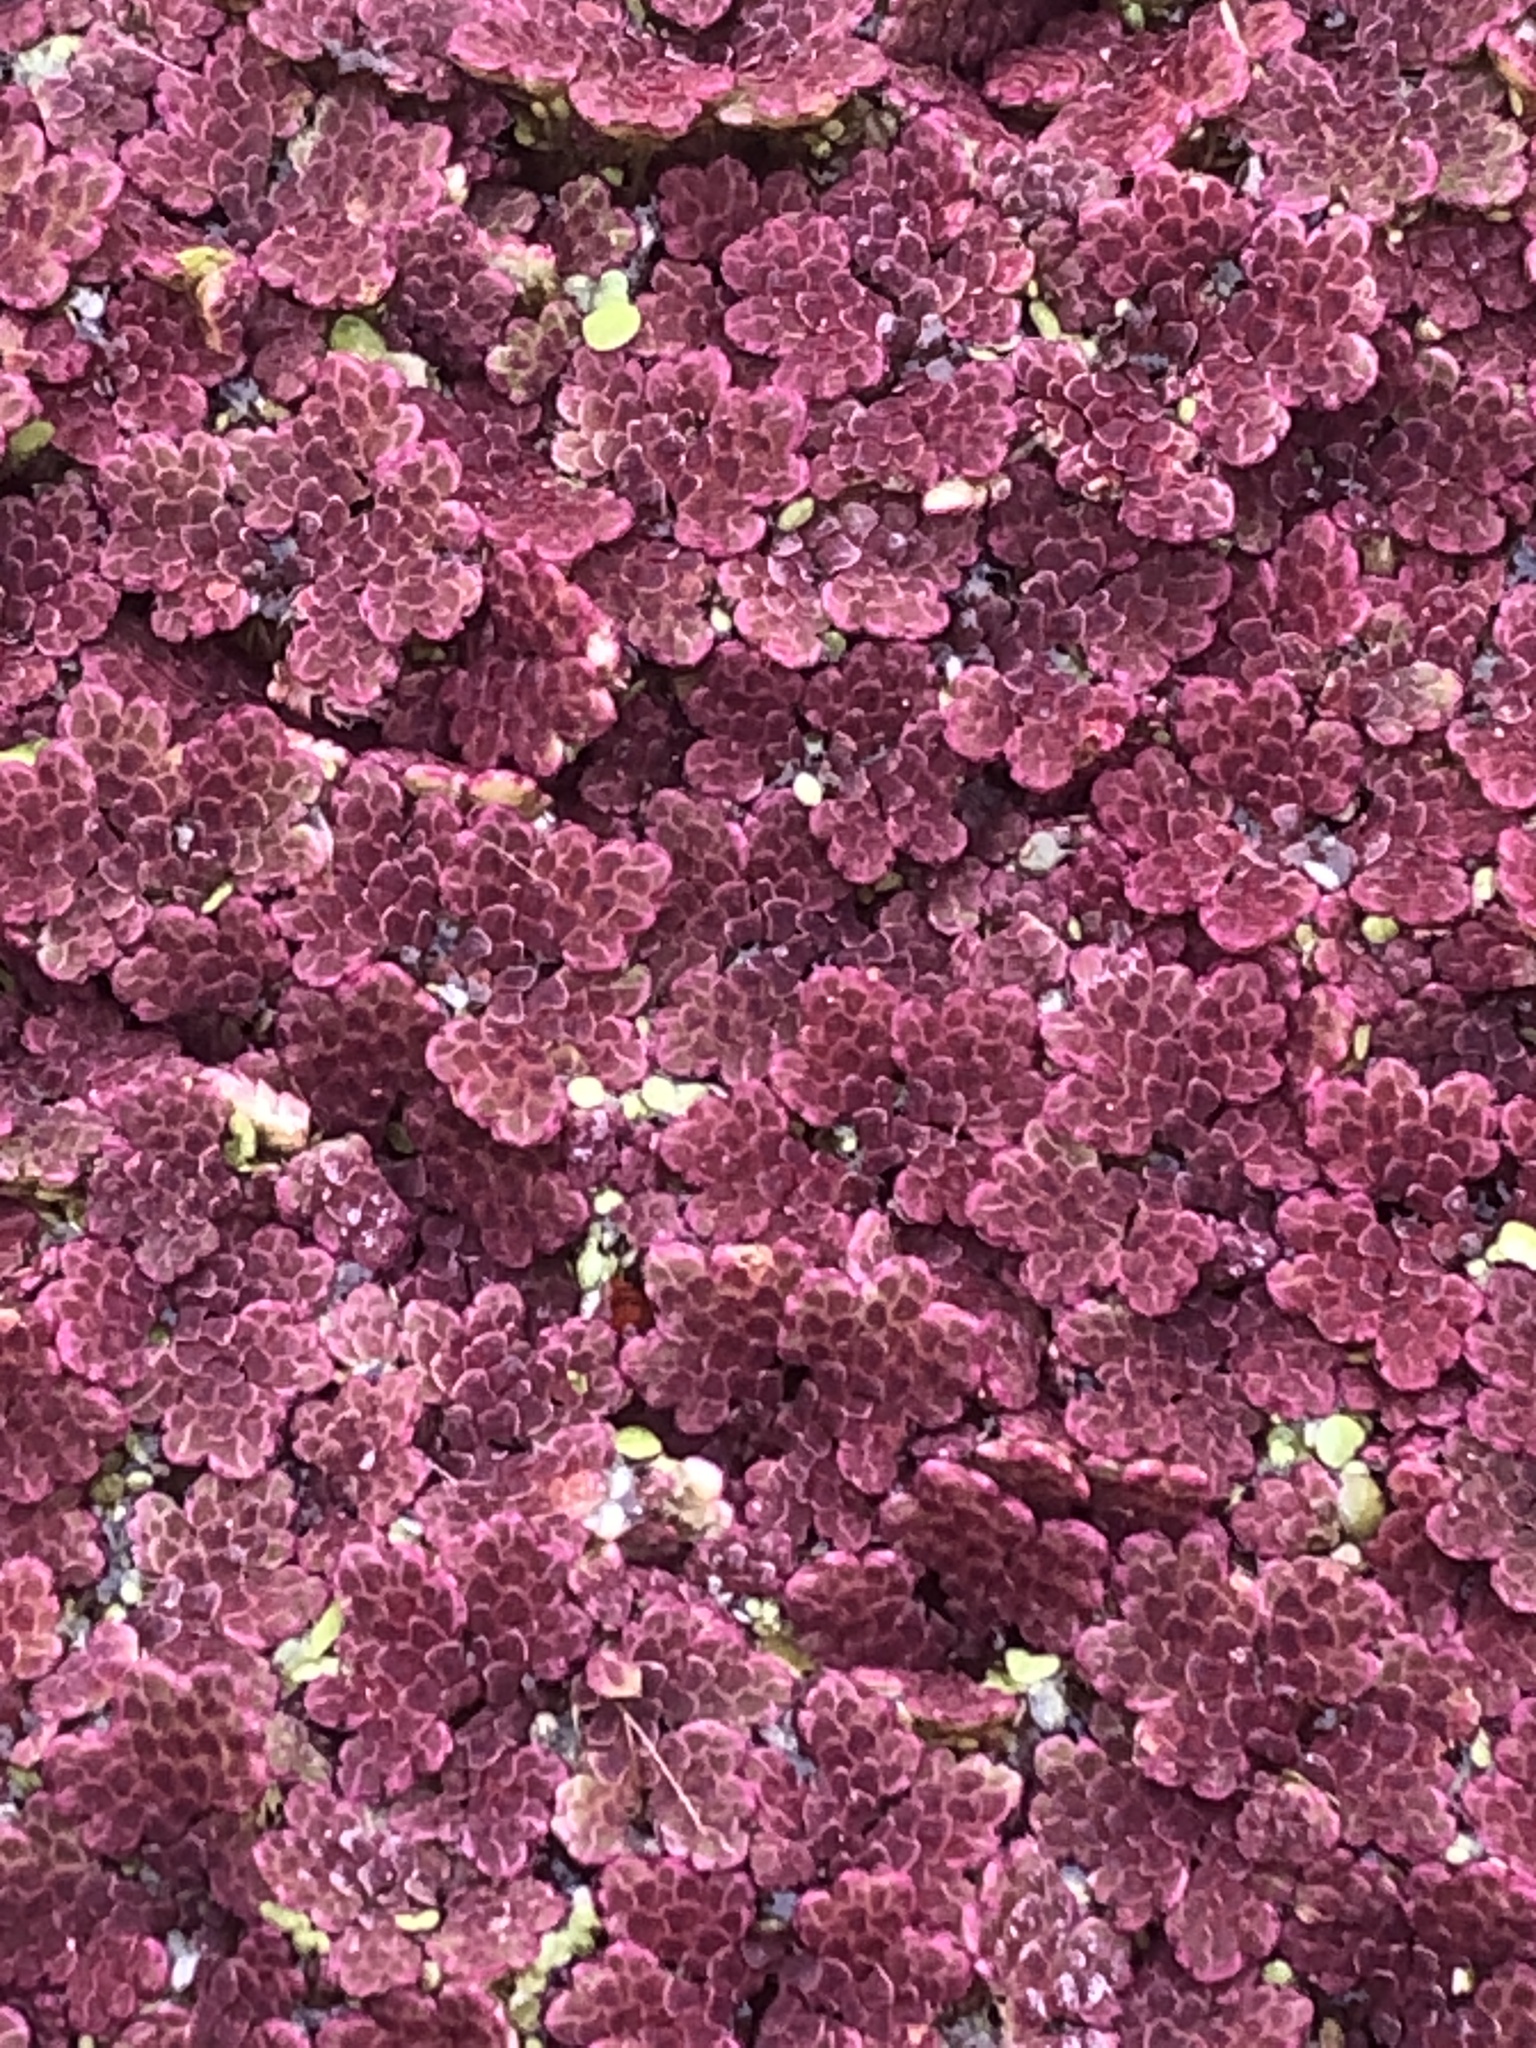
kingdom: Plantae
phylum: Tracheophyta
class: Polypodiopsida
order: Salviniales
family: Salviniaceae
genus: Azolla
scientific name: Azolla caroliniana
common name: Carolina mosquitofern
